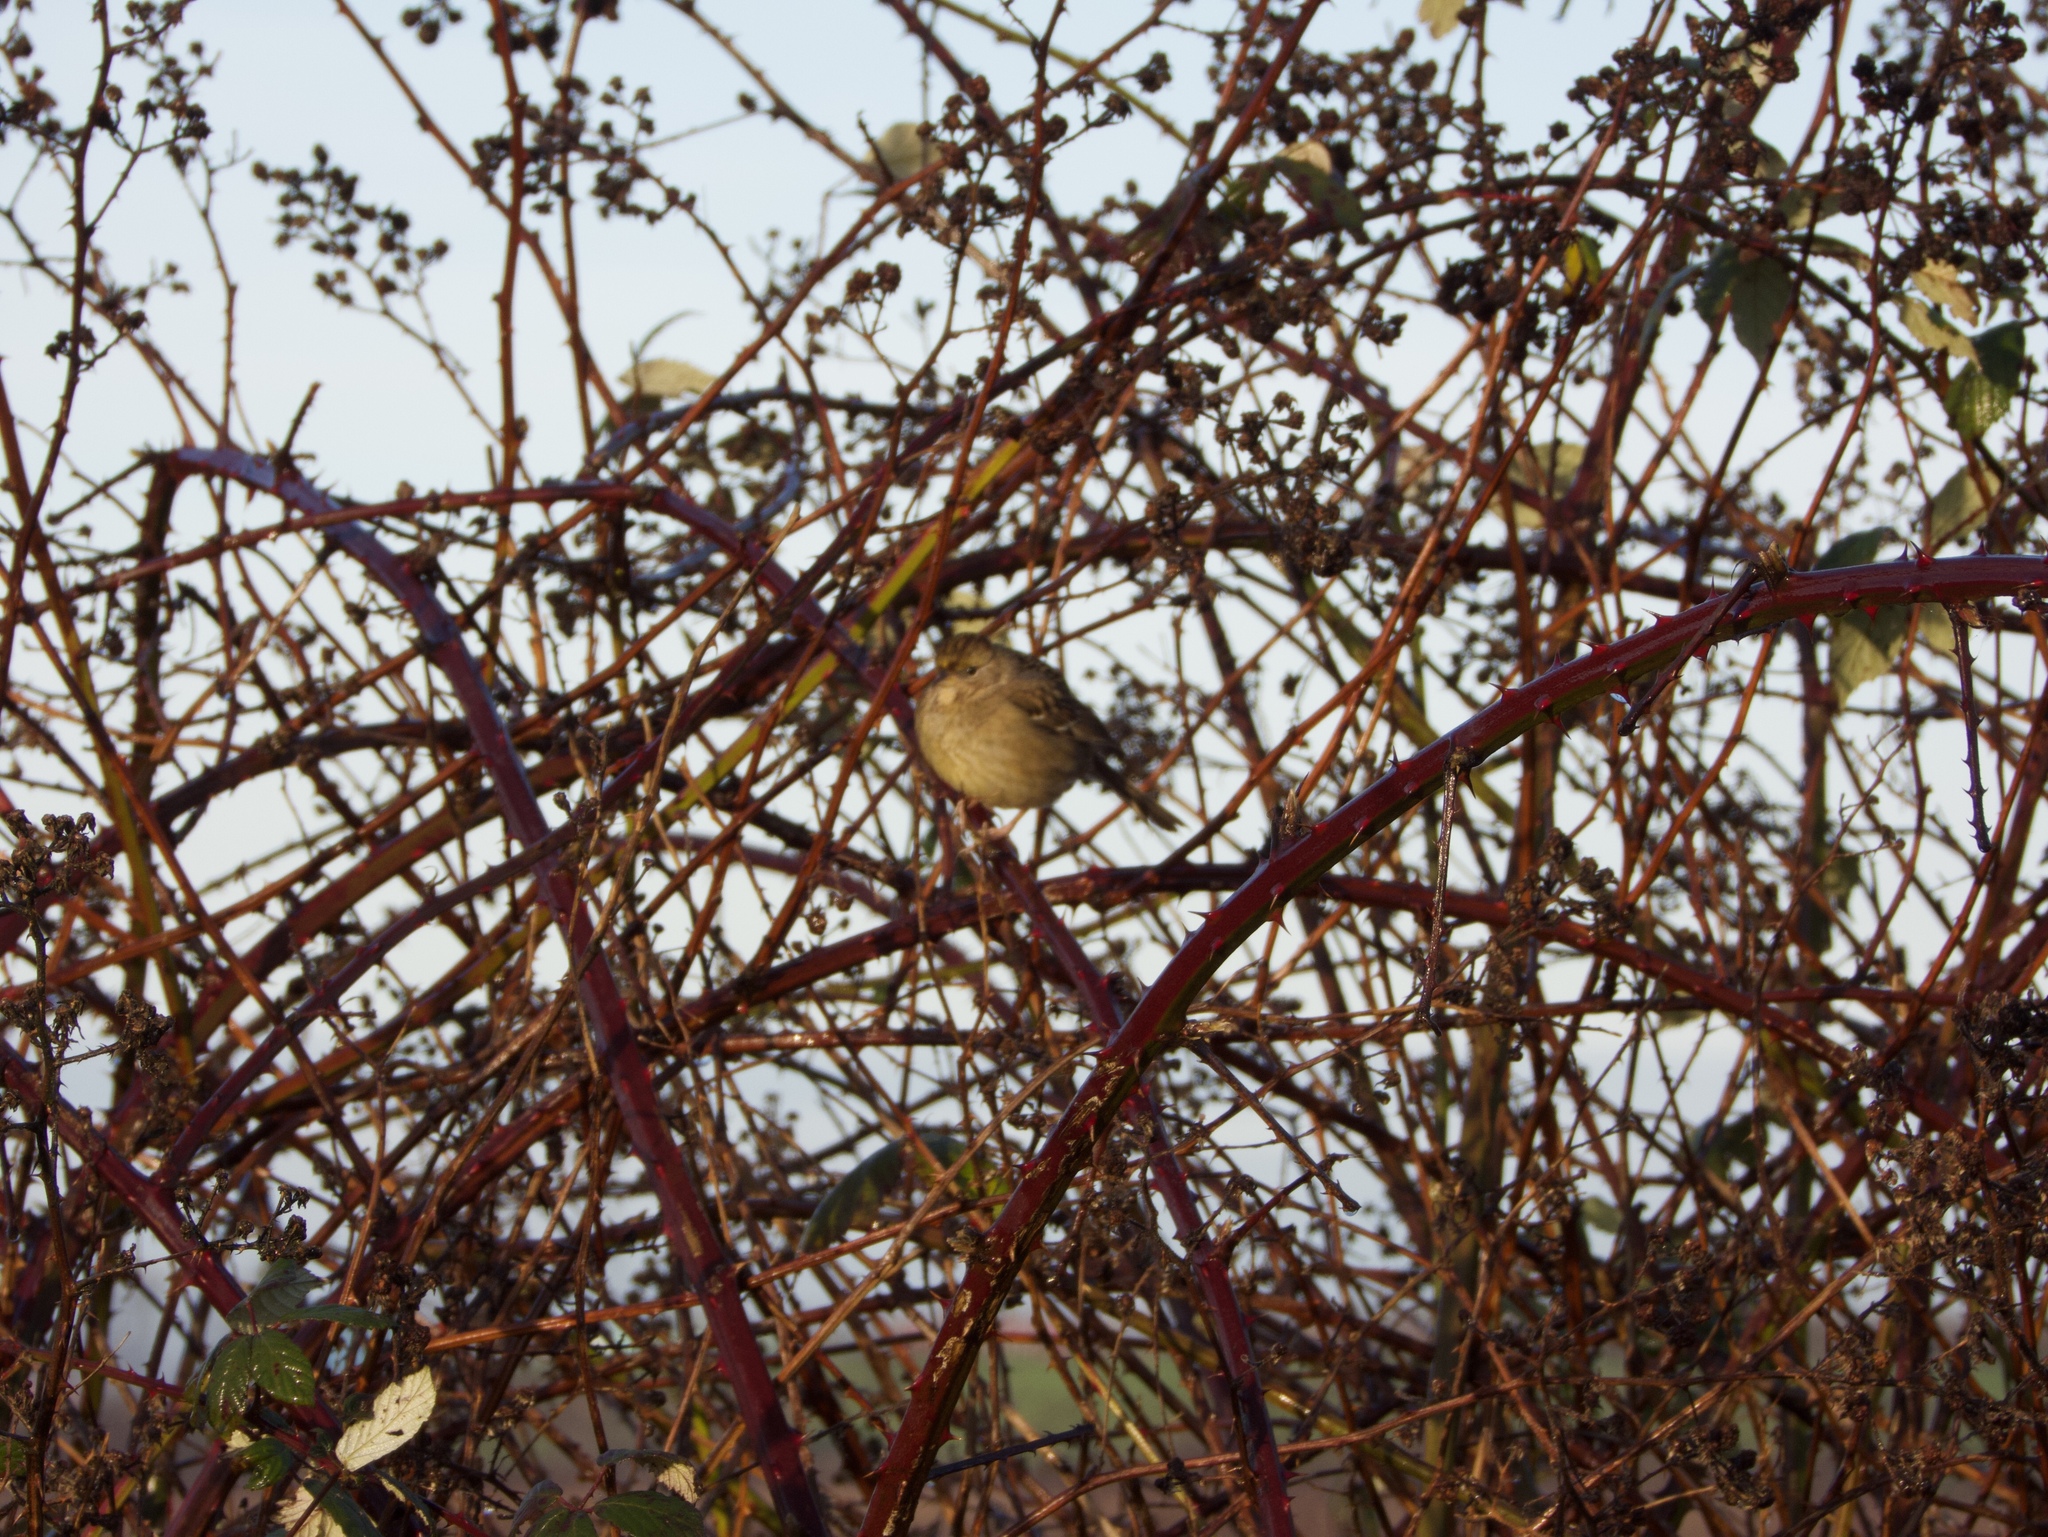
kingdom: Animalia
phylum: Chordata
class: Aves
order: Passeriformes
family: Passerellidae
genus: Zonotrichia
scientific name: Zonotrichia atricapilla
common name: Golden-crowned sparrow
